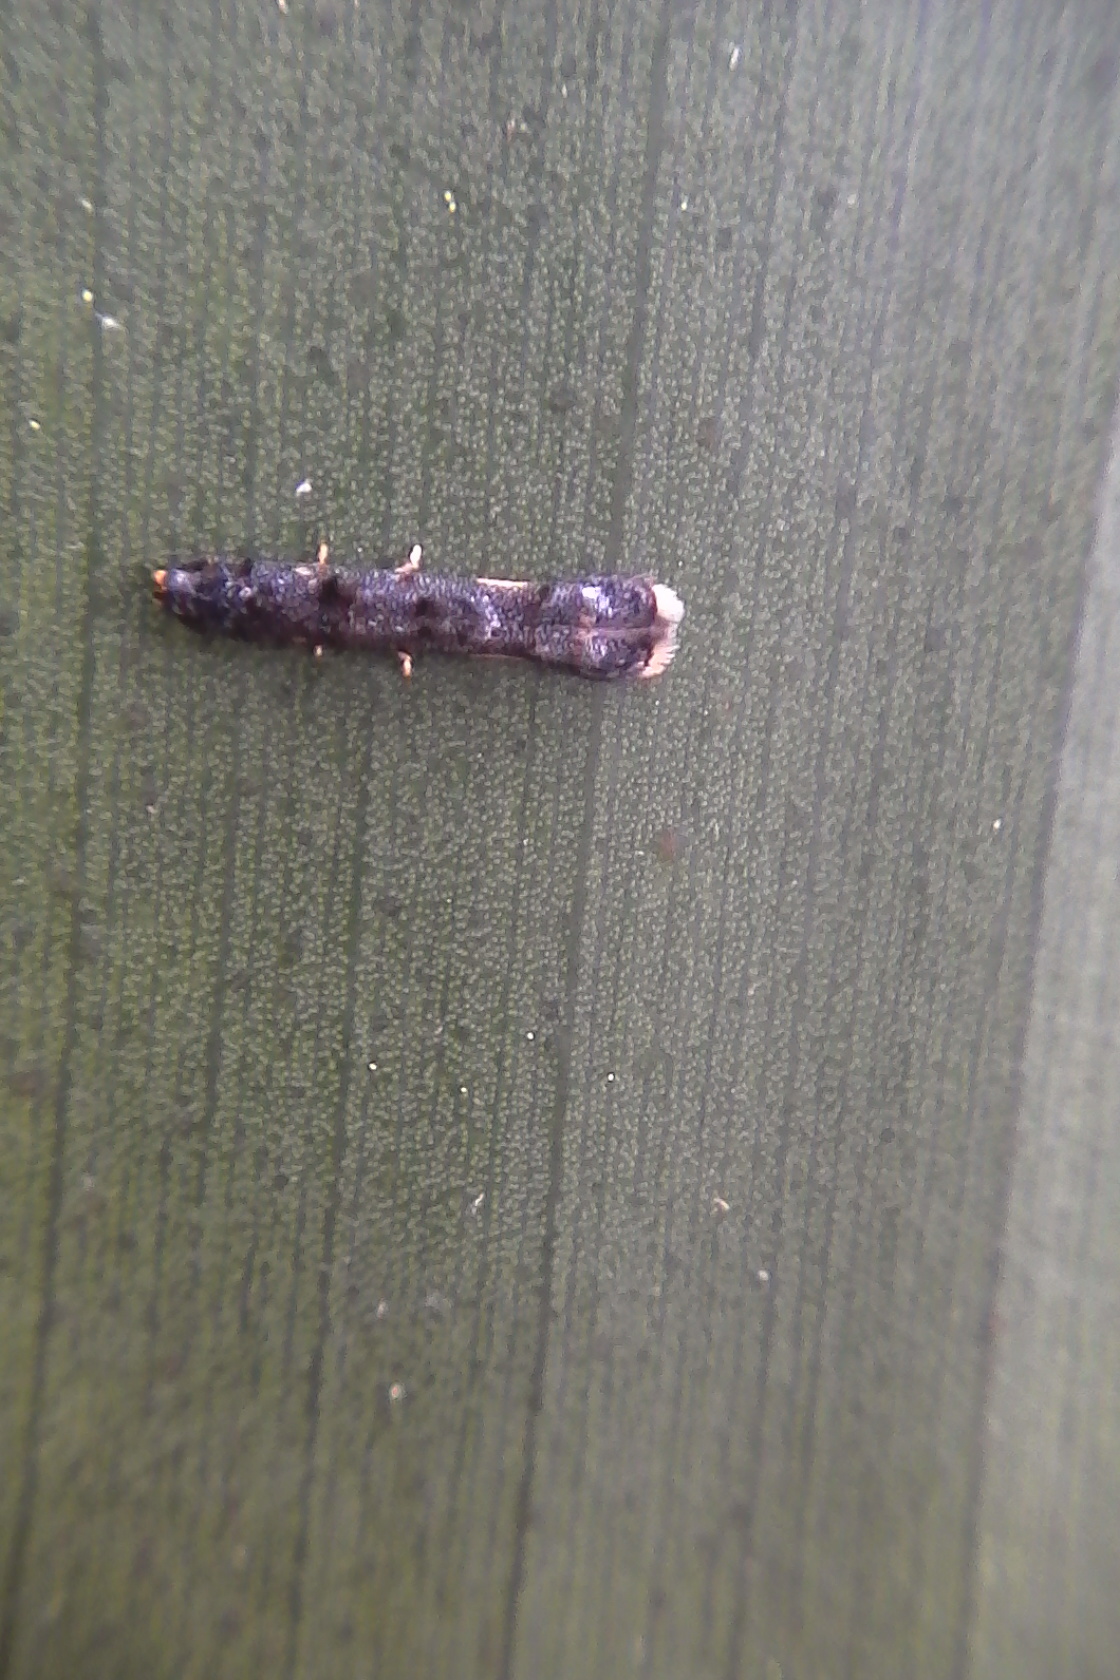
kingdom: Animalia
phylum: Arthropoda
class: Insecta
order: Lepidoptera
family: Elachistidae
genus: Microcolona
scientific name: Microcolona
